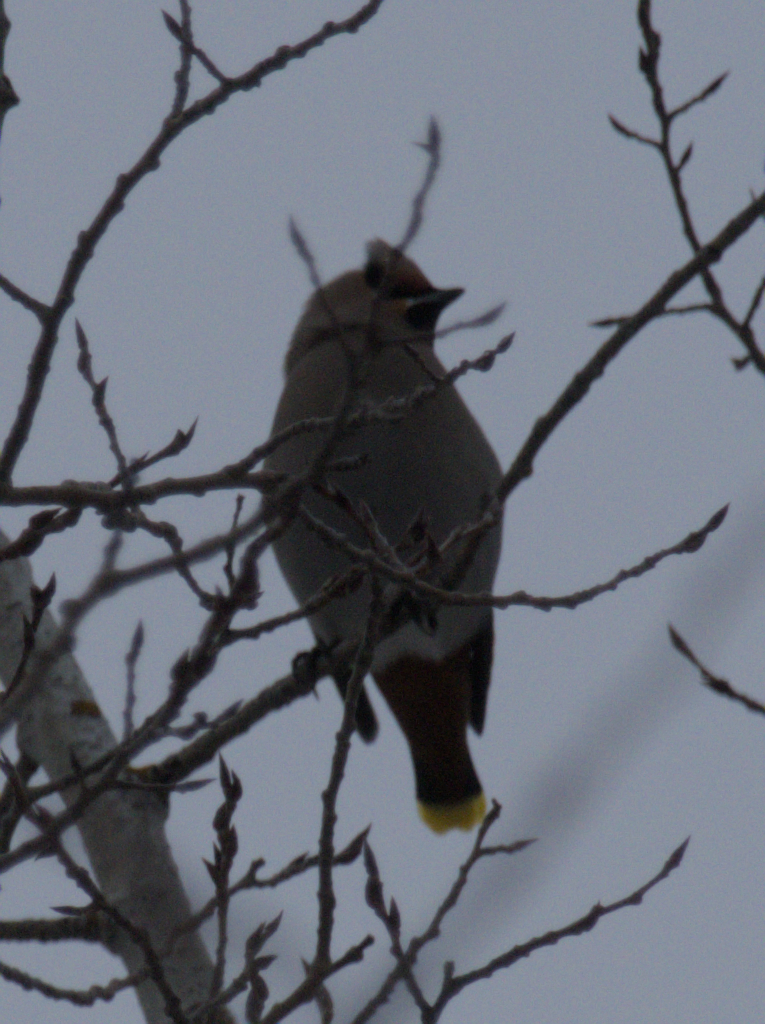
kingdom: Animalia
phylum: Chordata
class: Aves
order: Passeriformes
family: Bombycillidae
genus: Bombycilla
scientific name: Bombycilla garrulus
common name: Bohemian waxwing
